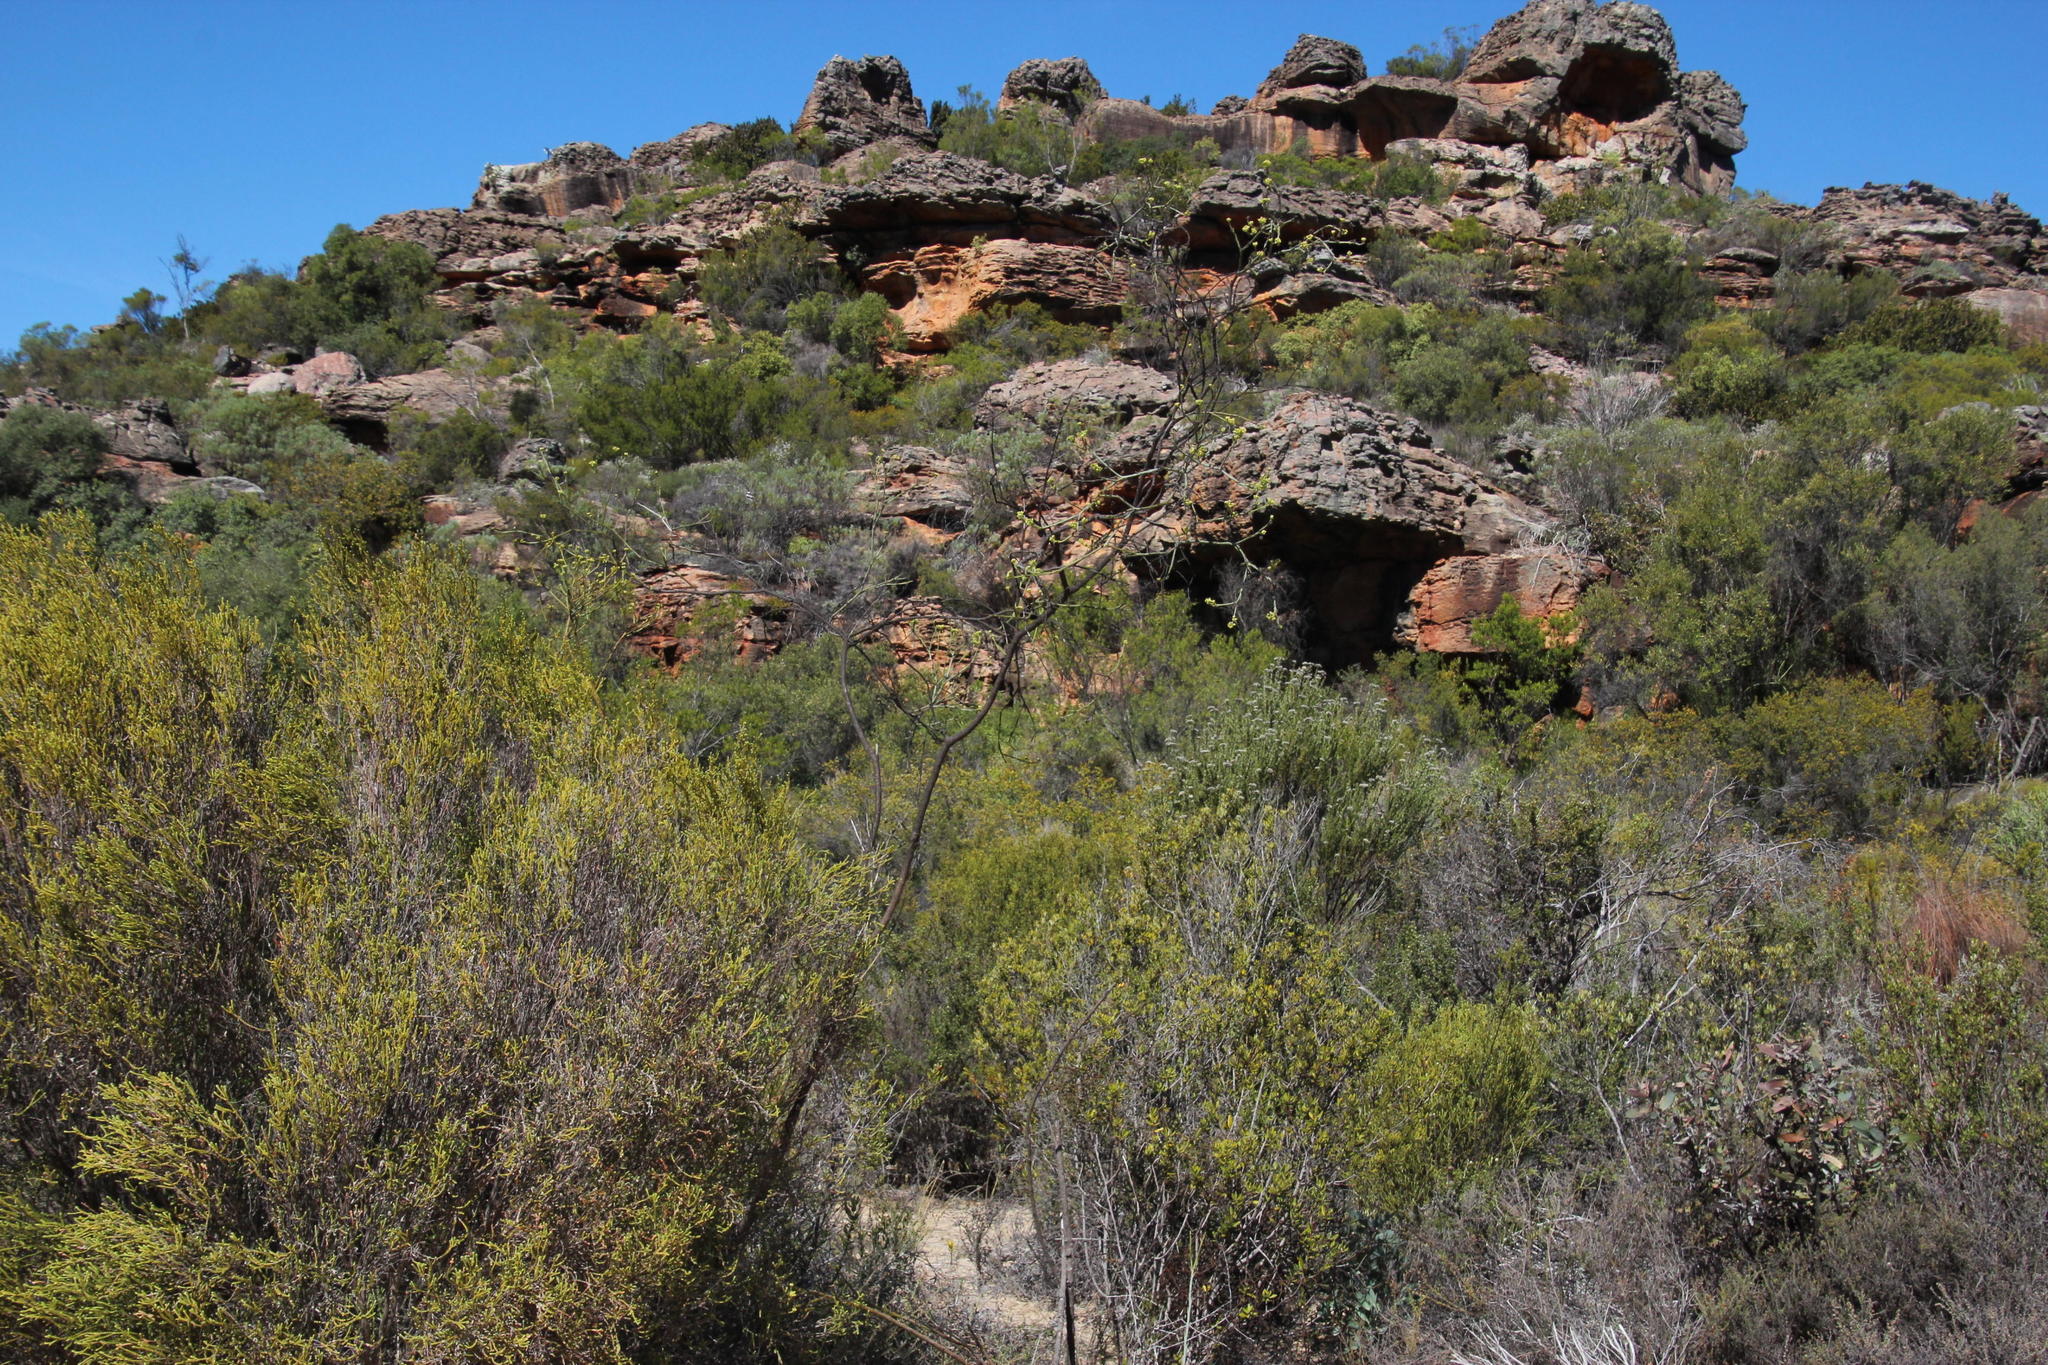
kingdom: Plantae
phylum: Tracheophyta
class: Magnoliopsida
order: Santalales
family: Thesiaceae
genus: Thesium
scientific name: Thesium strictum
